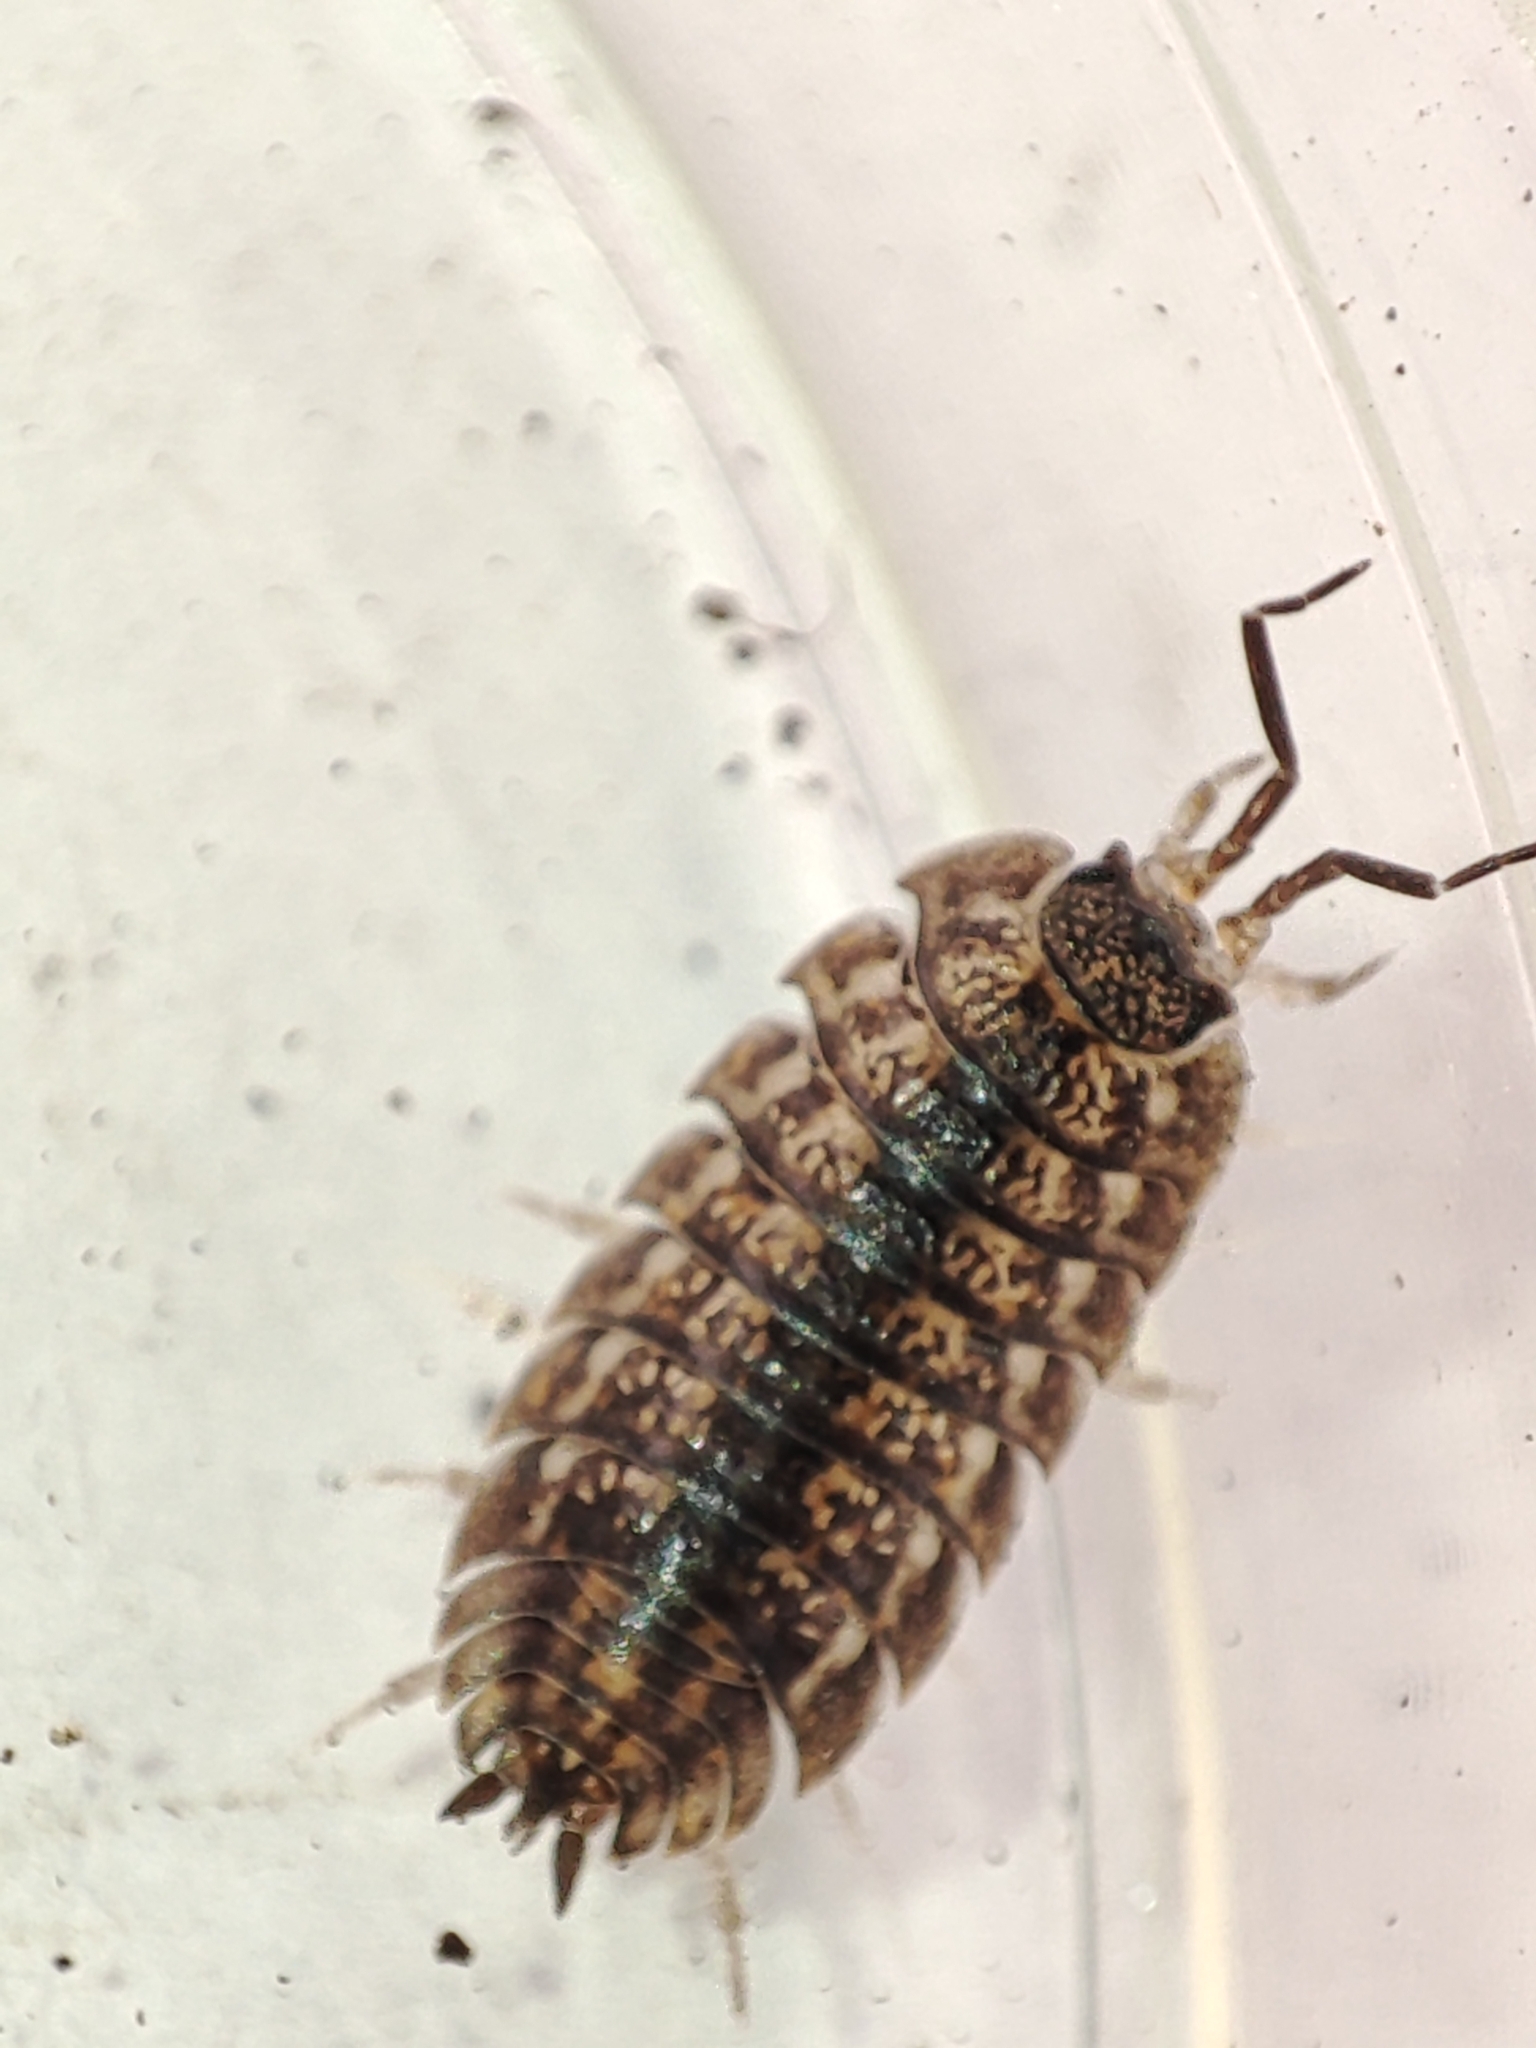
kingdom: Animalia
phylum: Arthropoda
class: Malacostraca
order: Isopoda
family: Trachelipodidae
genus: Trachelipus
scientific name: Trachelipus rathkii
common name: Isopod
